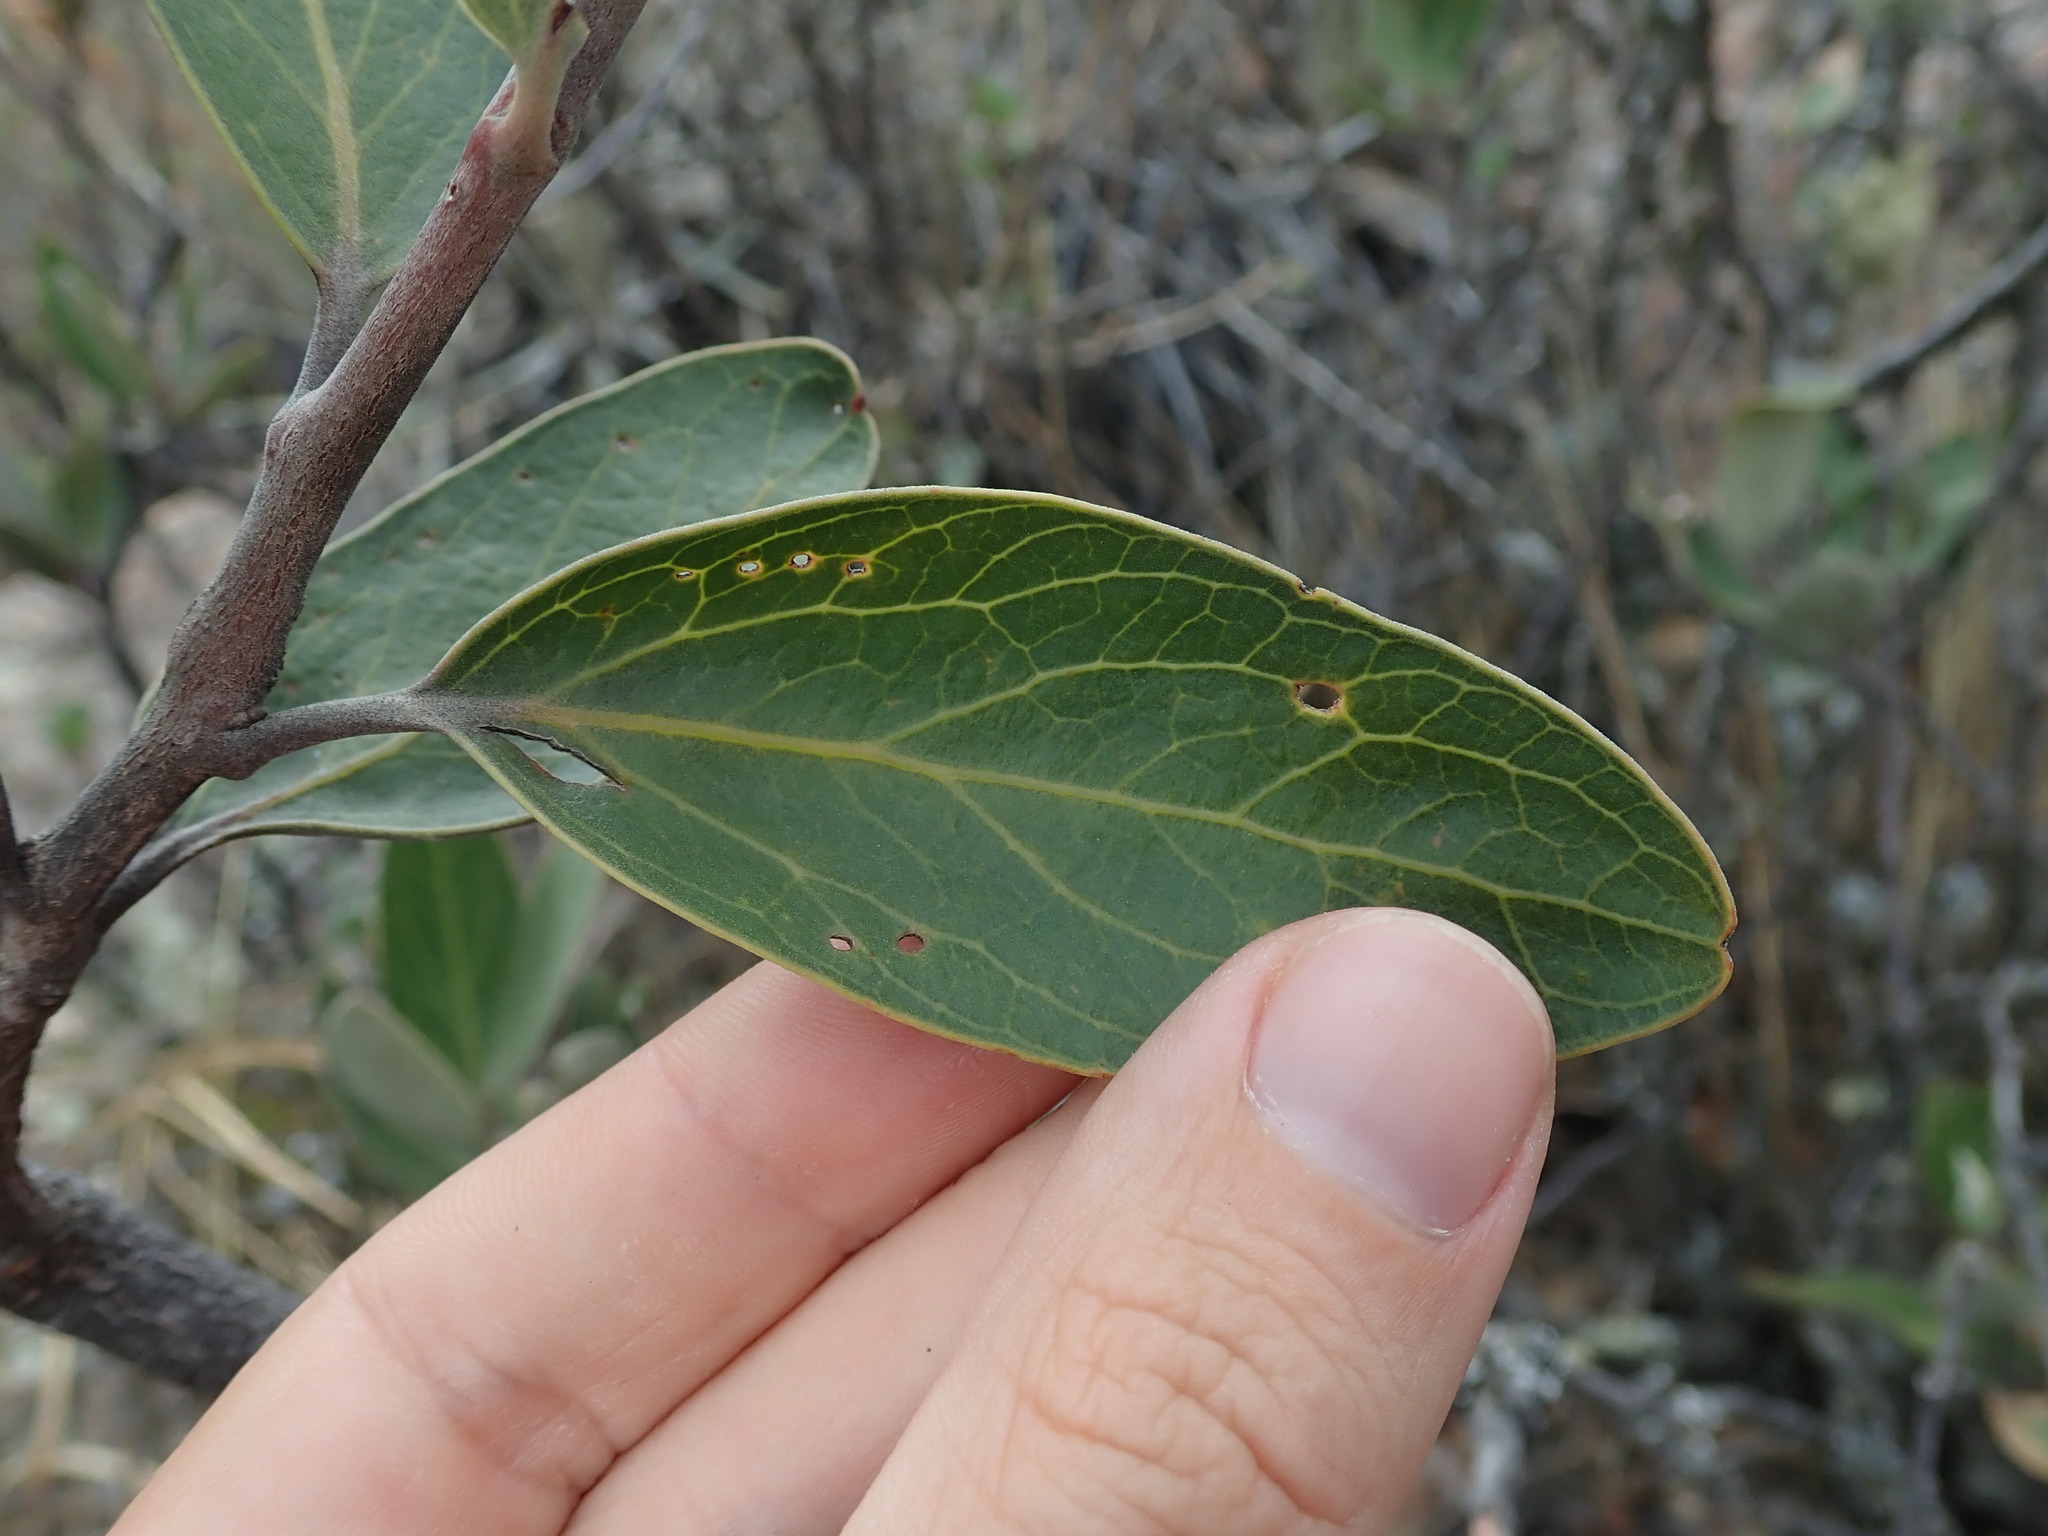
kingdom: Plantae
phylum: Tracheophyta
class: Magnoliopsida
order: Proteales
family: Proteaceae
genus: Orites
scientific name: Orites fiebrigii
